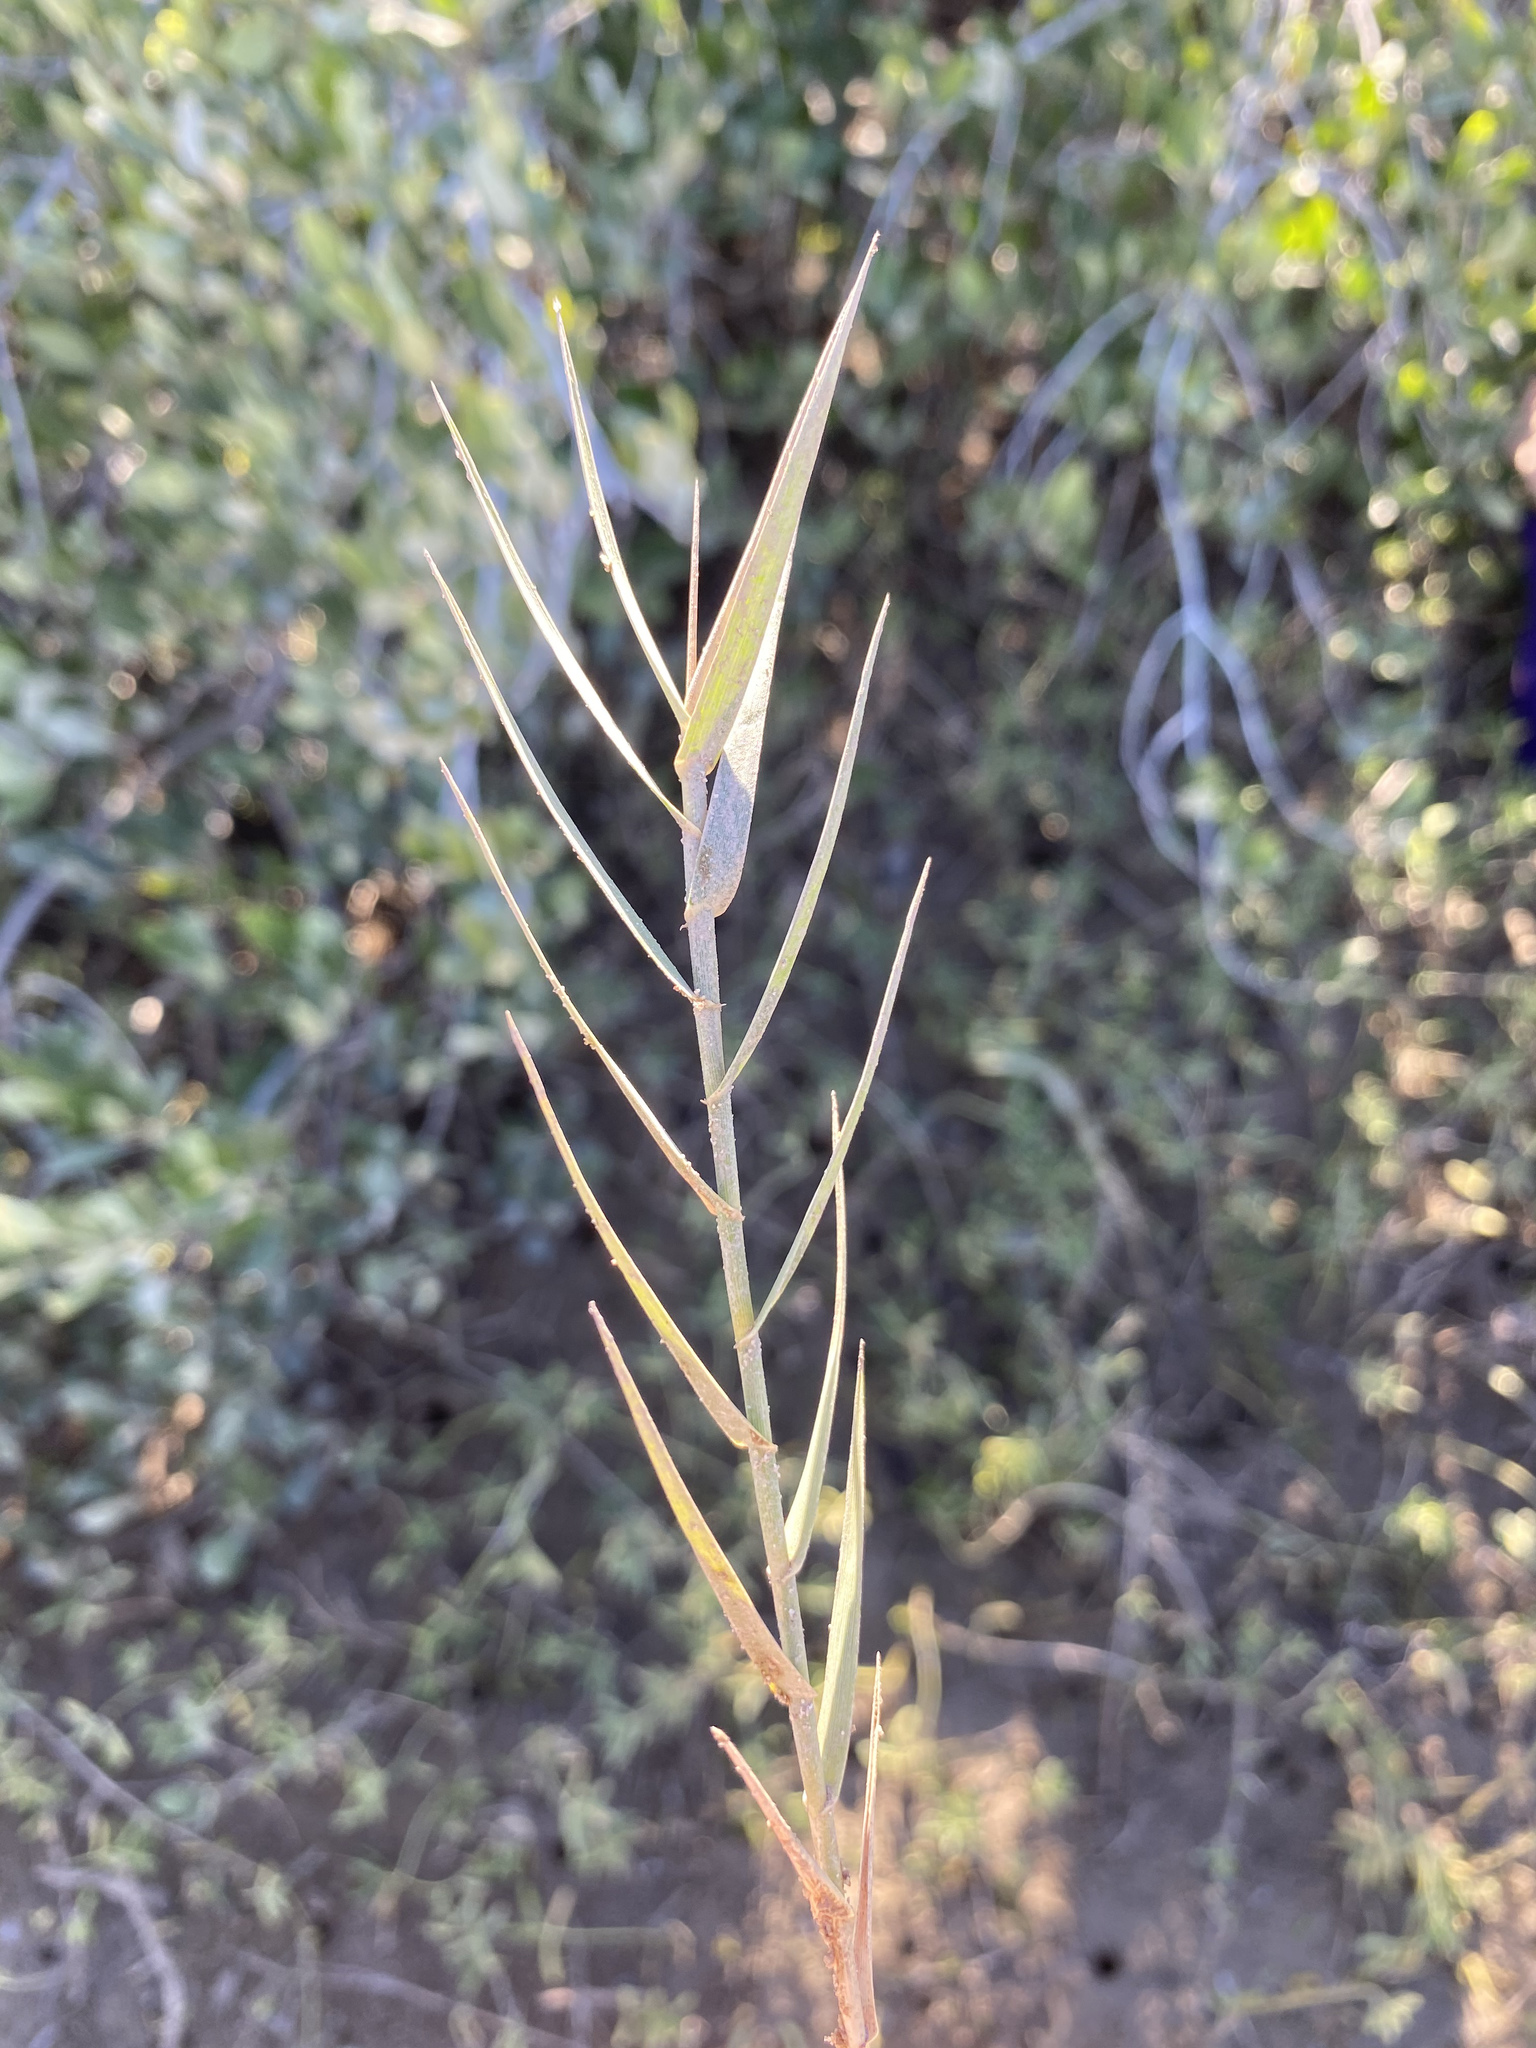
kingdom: Plantae
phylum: Tracheophyta
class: Liliopsida
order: Poales
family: Poaceae
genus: Distichlis
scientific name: Distichlis spicata
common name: Saltgrass
